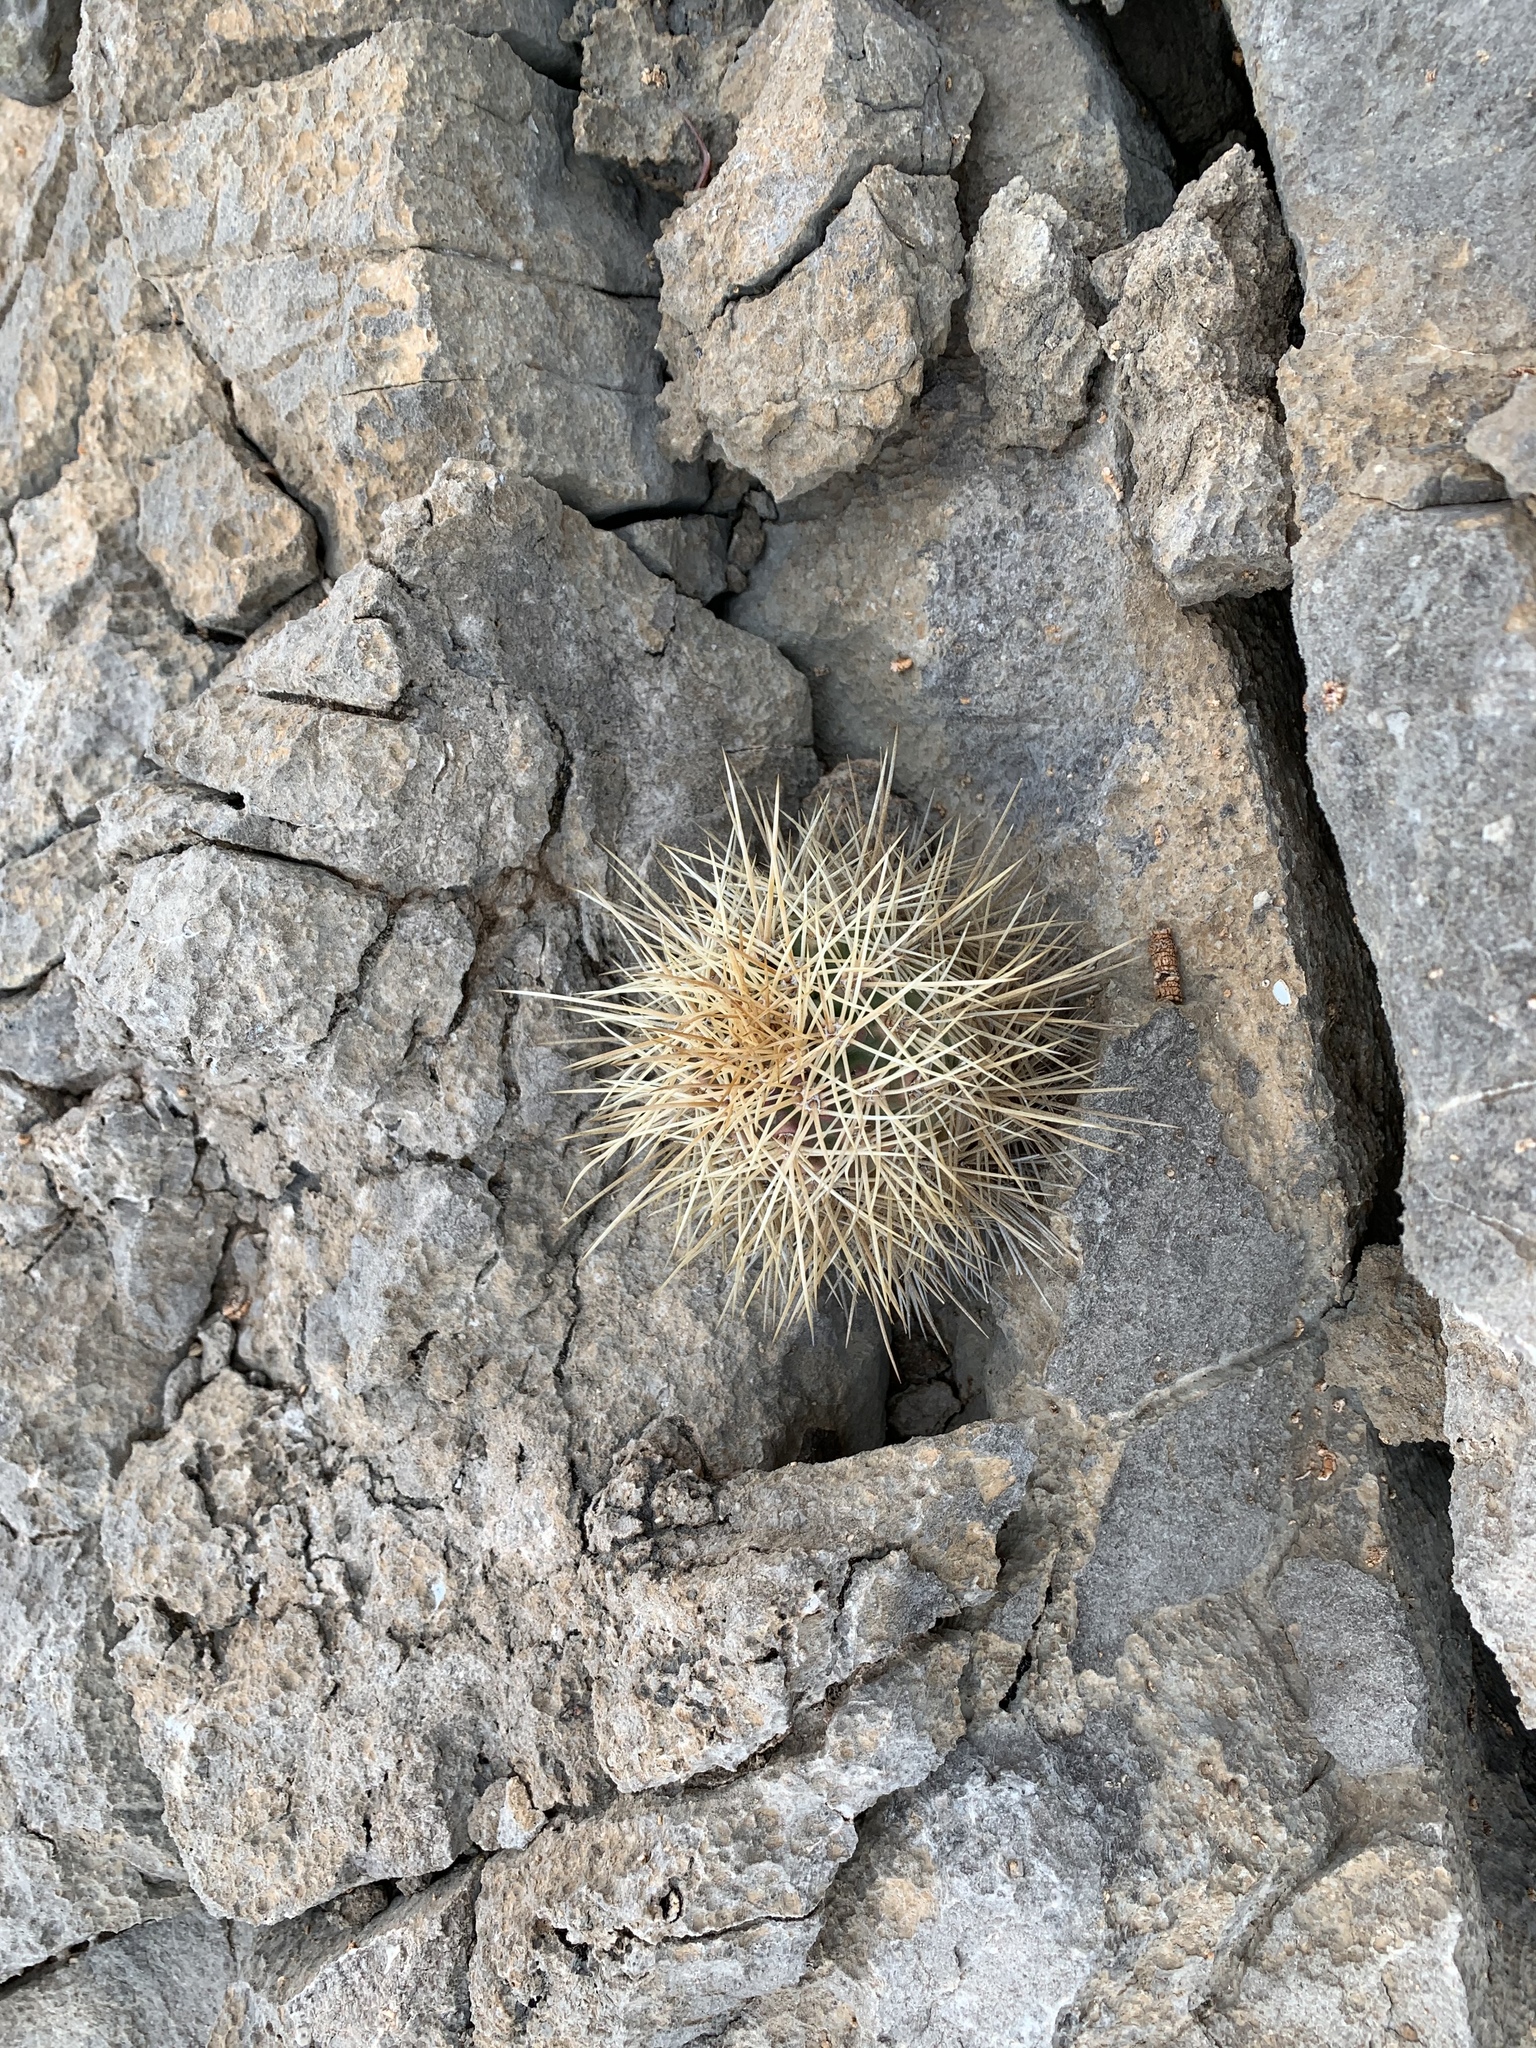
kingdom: Plantae
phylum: Tracheophyta
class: Magnoliopsida
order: Caryophyllales
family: Cactaceae
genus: Echinocereus
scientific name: Echinocereus coccineus
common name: Scarlet hedgehog cactus
